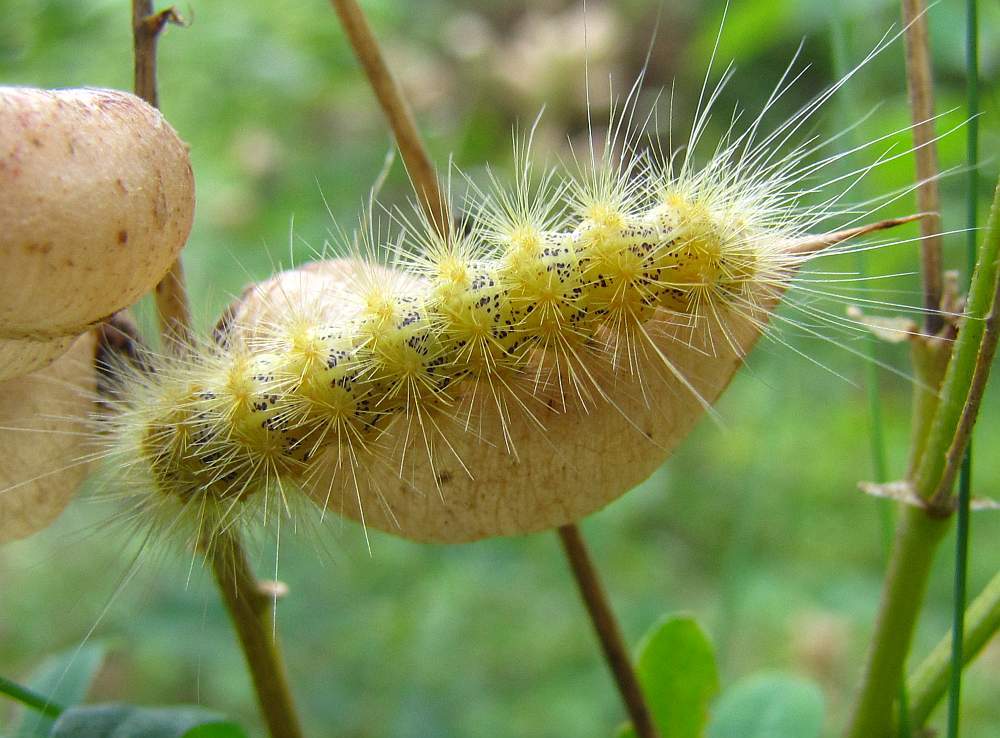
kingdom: Animalia
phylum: Arthropoda
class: Insecta
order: Lepidoptera
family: Erebidae
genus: Estigmene
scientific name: Estigmene acrea
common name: Salt marsh moth
